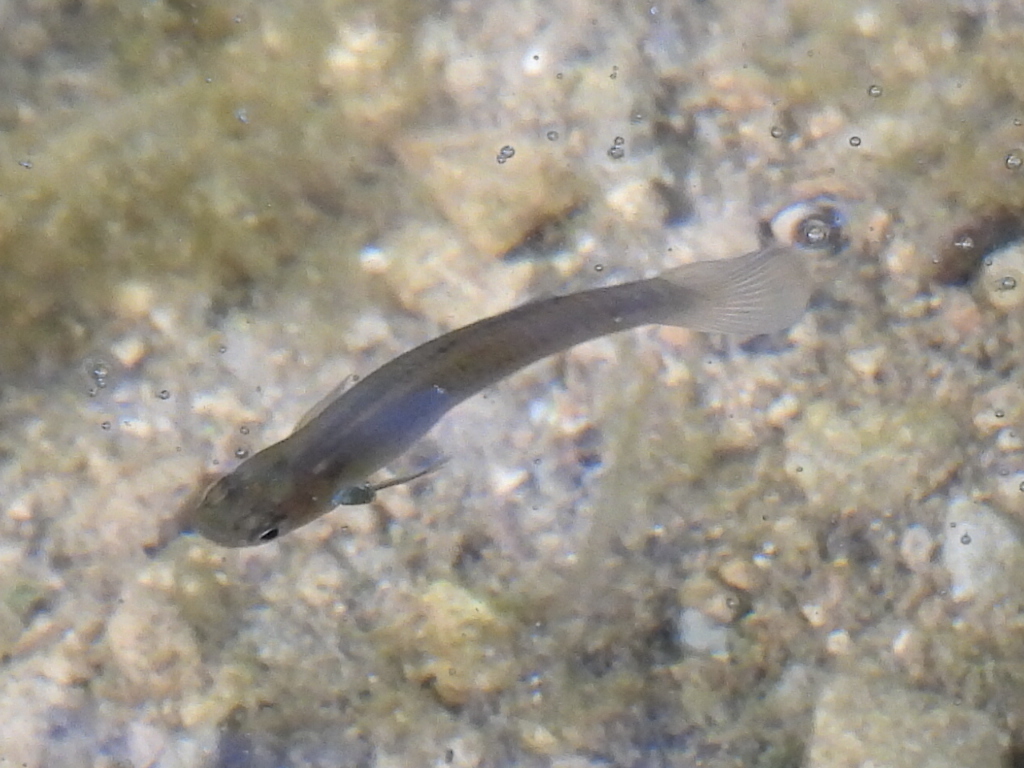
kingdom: Animalia
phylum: Chordata
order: Cyprinodontiformes
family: Poeciliidae
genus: Gambusia
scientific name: Gambusia affinis
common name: Mosquitofish
